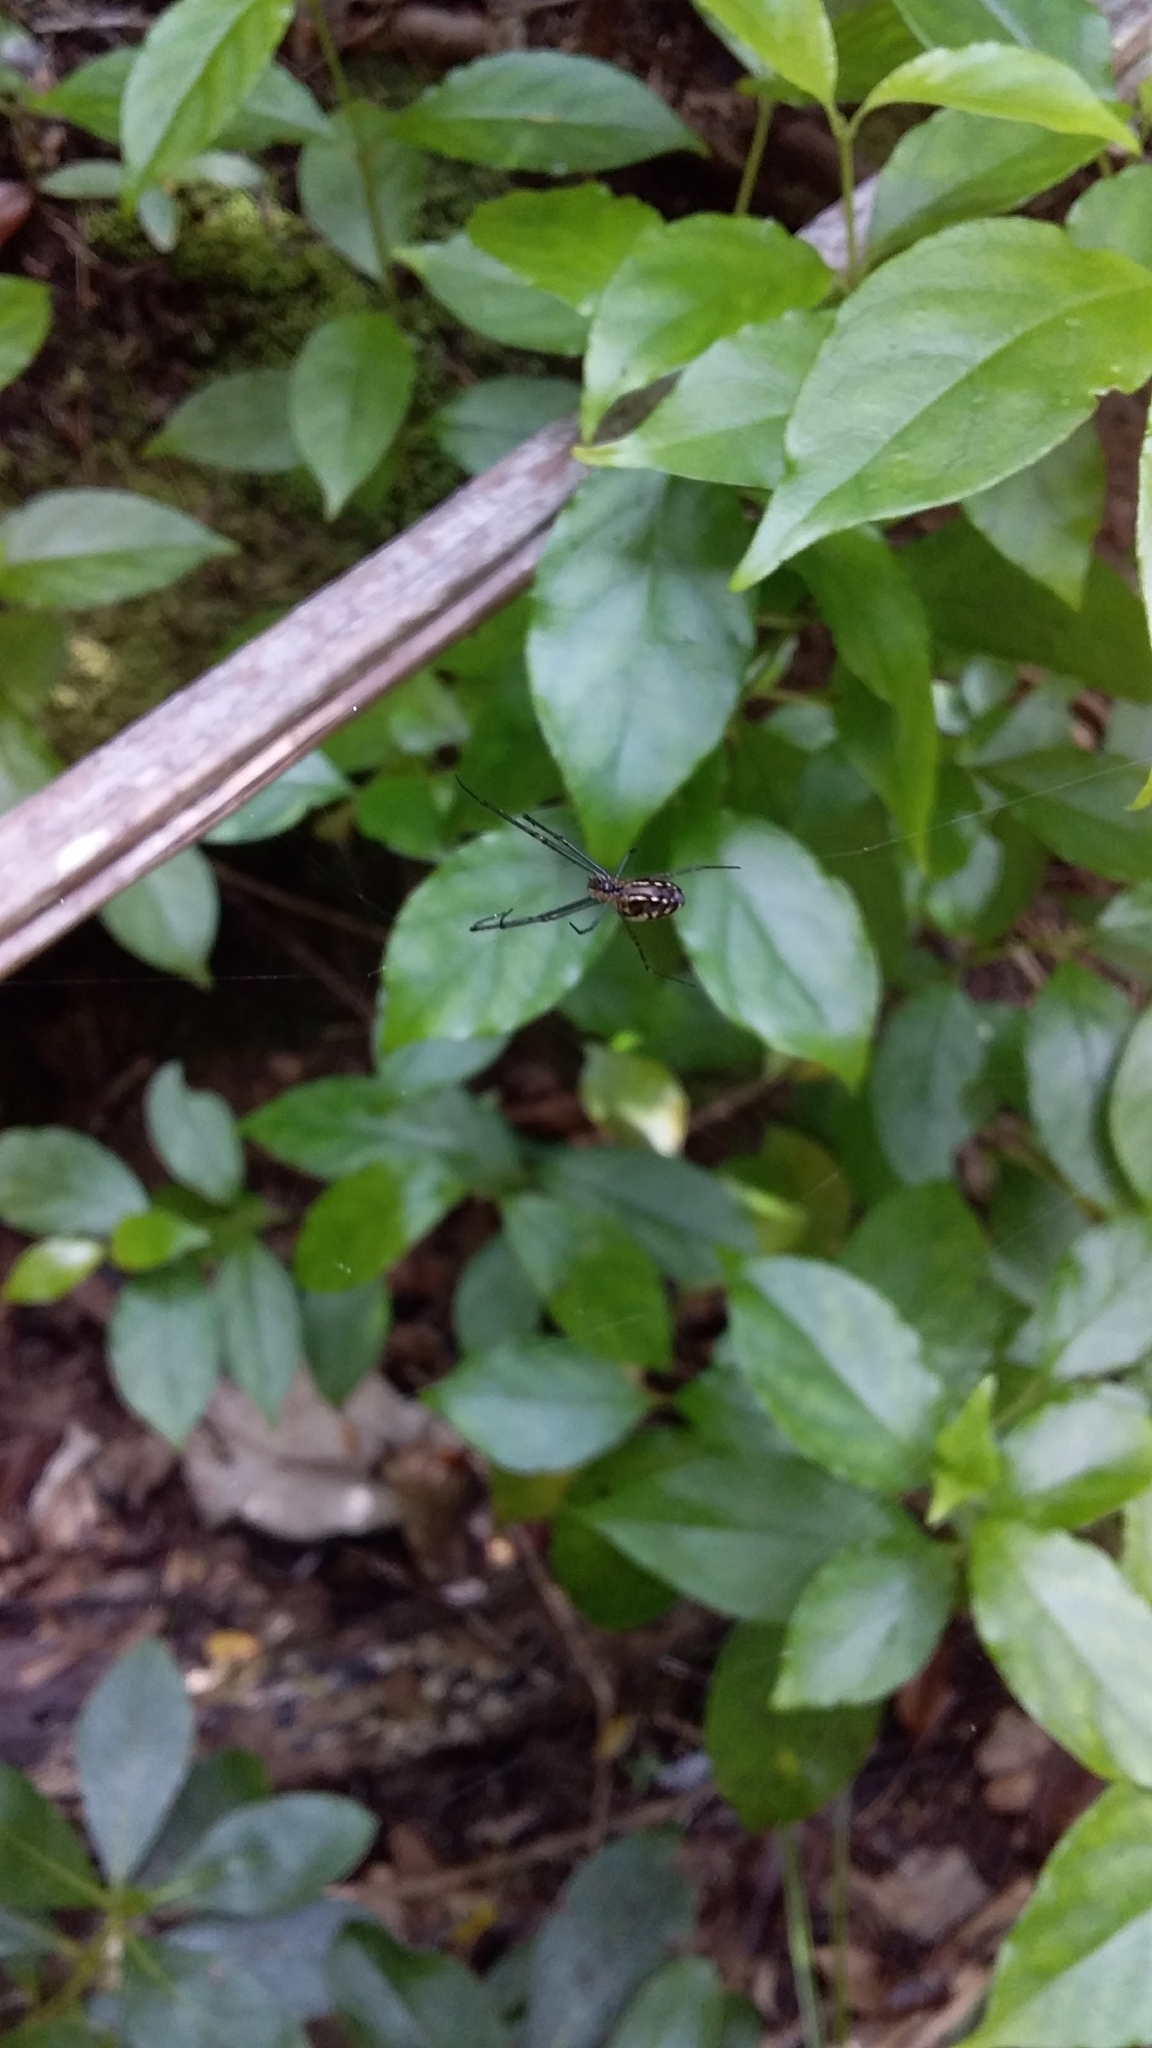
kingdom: Animalia
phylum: Arthropoda
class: Arachnida
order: Araneae
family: Tetragnathidae
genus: Leucauge
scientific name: Leucauge dromedaria
